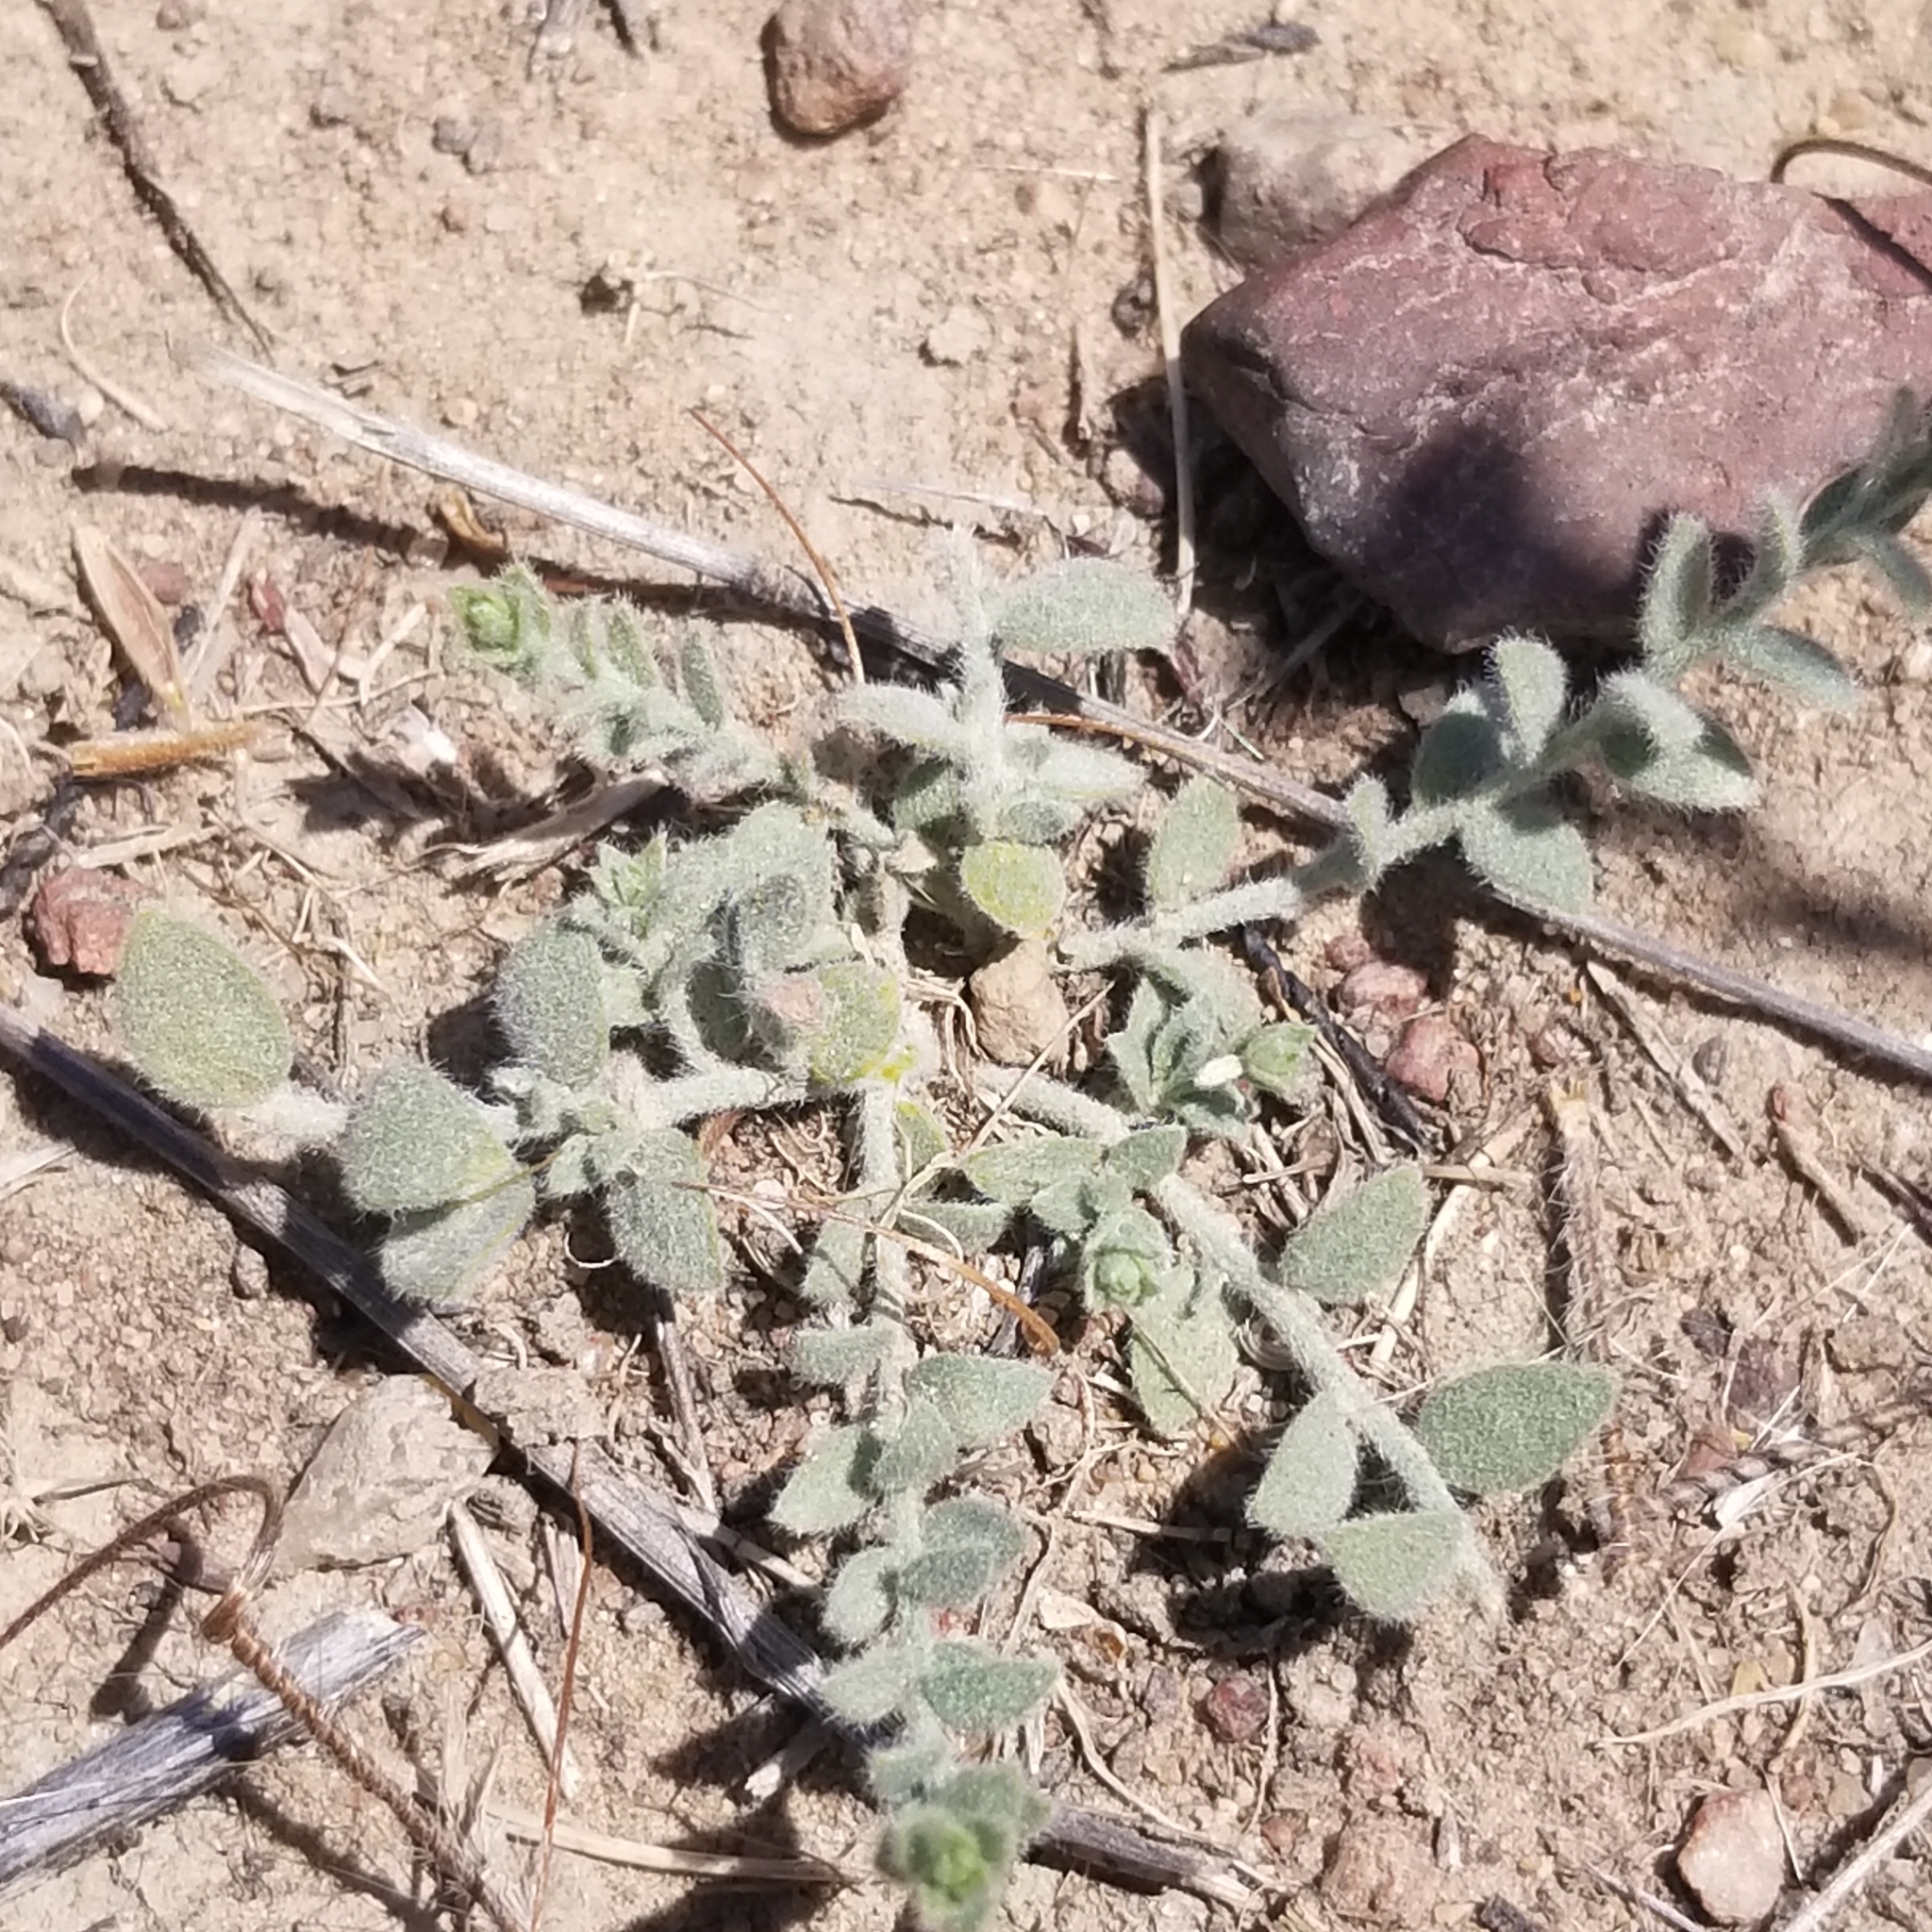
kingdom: Plantae
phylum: Tracheophyta
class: Magnoliopsida
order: Solanales
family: Convolvulaceae
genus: Cressa
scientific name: Cressa truxillensis
